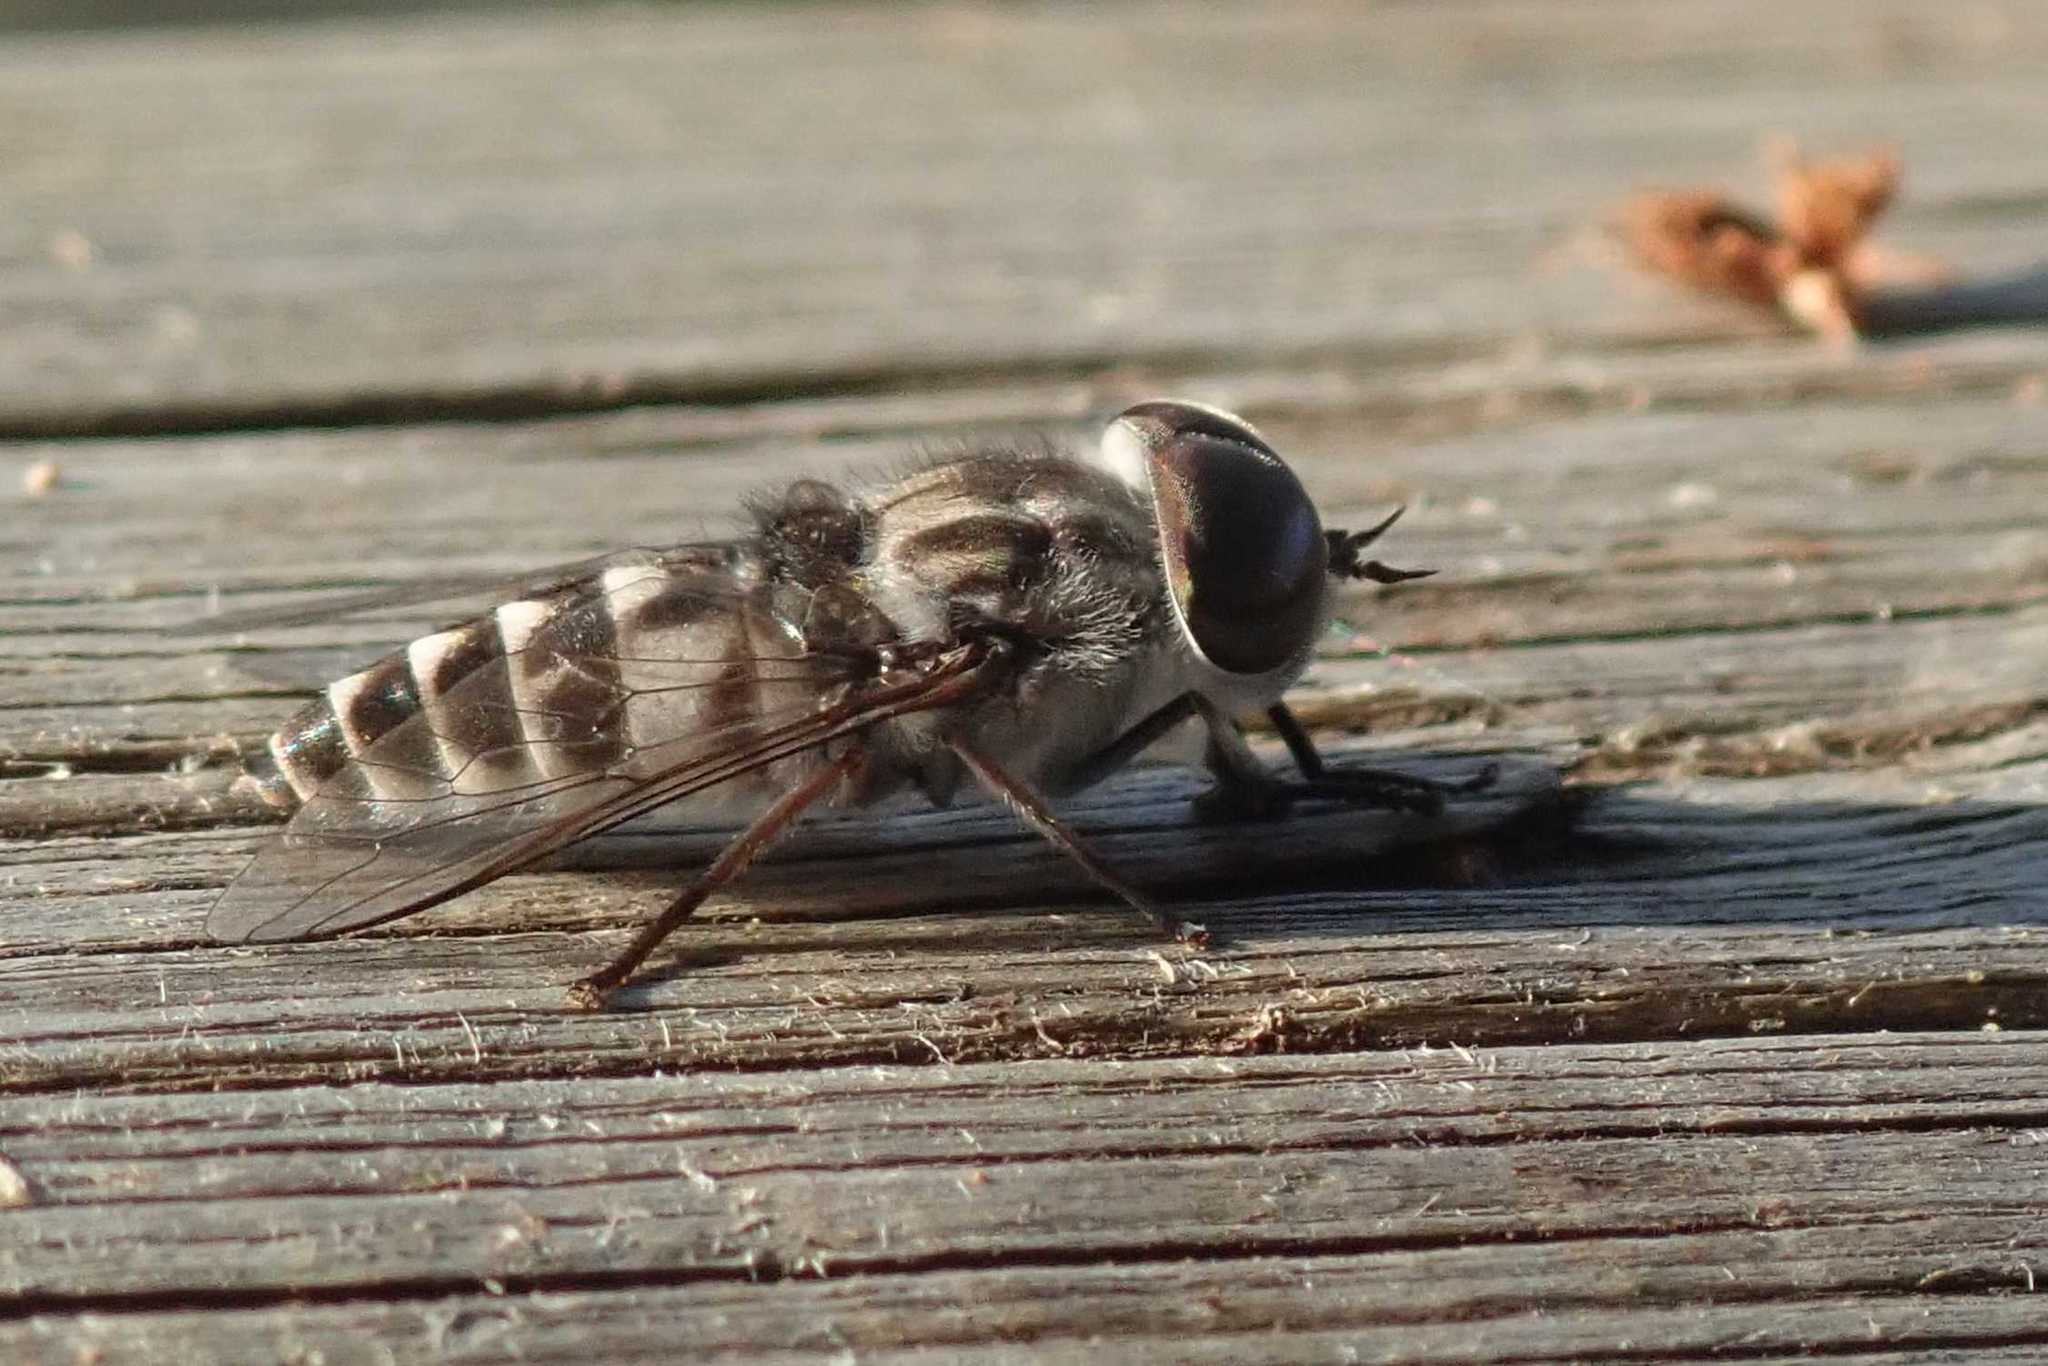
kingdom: Animalia
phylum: Arthropoda
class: Insecta
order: Diptera
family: Tabanidae
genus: Tabanus
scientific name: Tabanus atrimanus
